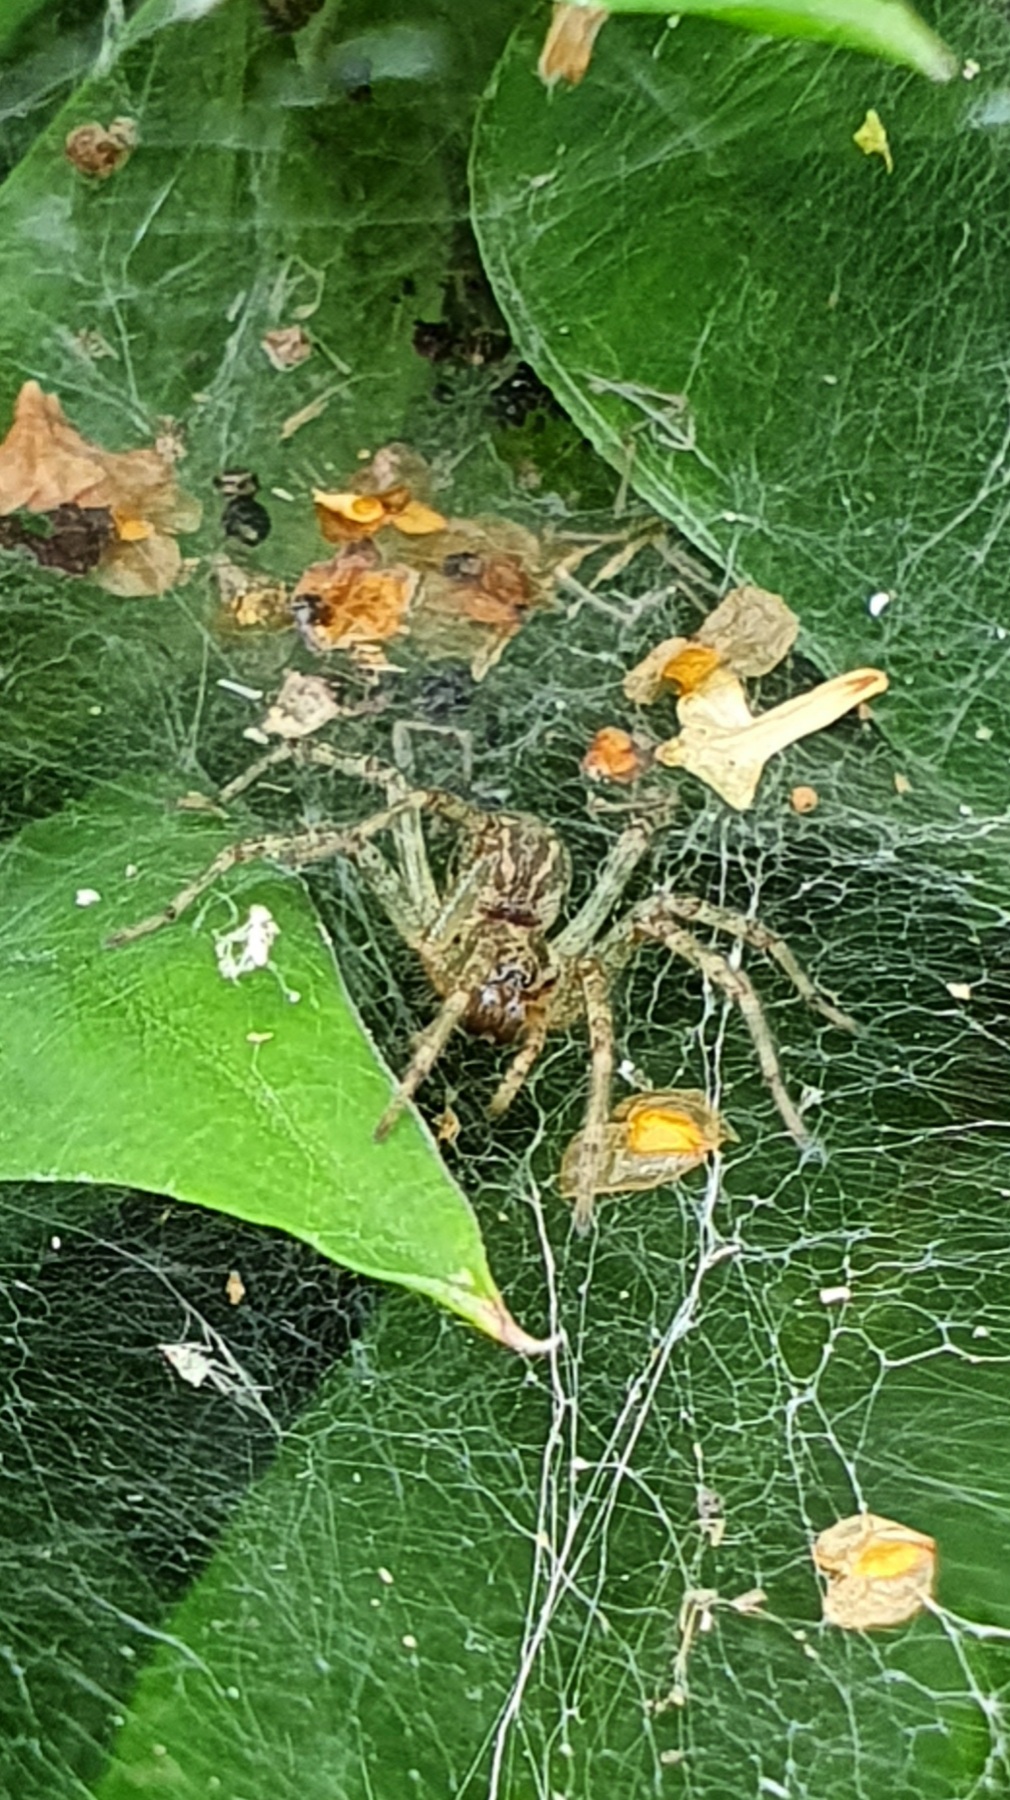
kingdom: Animalia
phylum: Arthropoda
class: Arachnida
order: Araneae
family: Agelenidae
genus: Allagelena
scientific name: Allagelena gracilens
